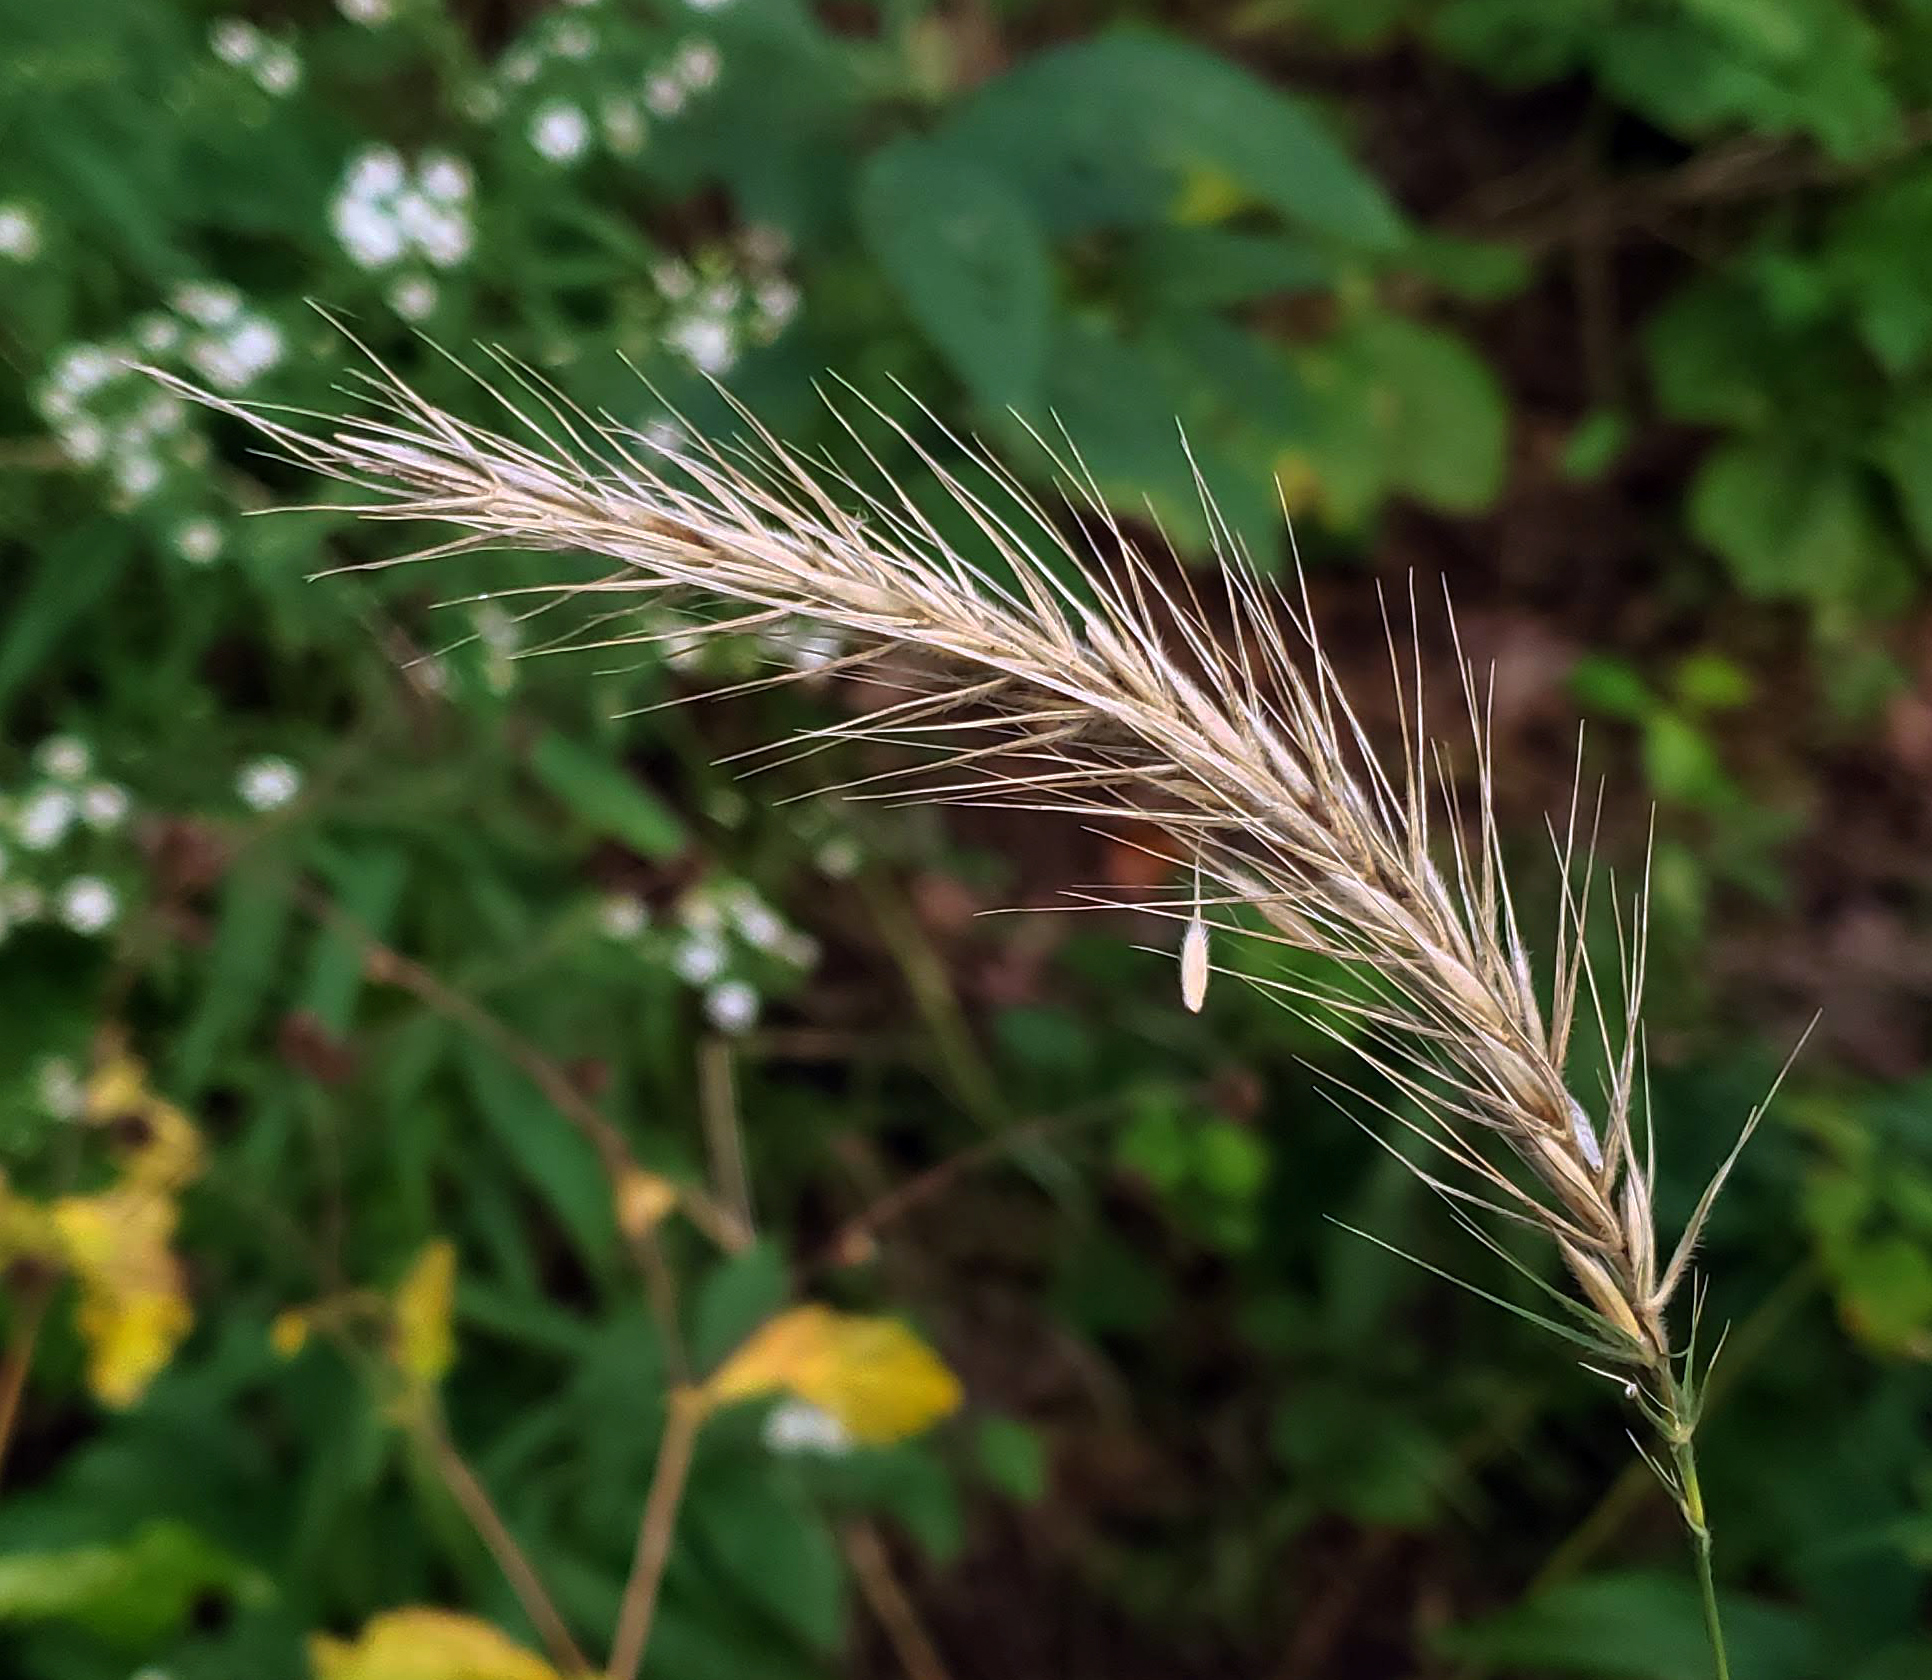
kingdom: Plantae
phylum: Tracheophyta
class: Liliopsida
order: Poales
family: Poaceae
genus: Elymus
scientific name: Elymus villosus
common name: Downy wild rye
